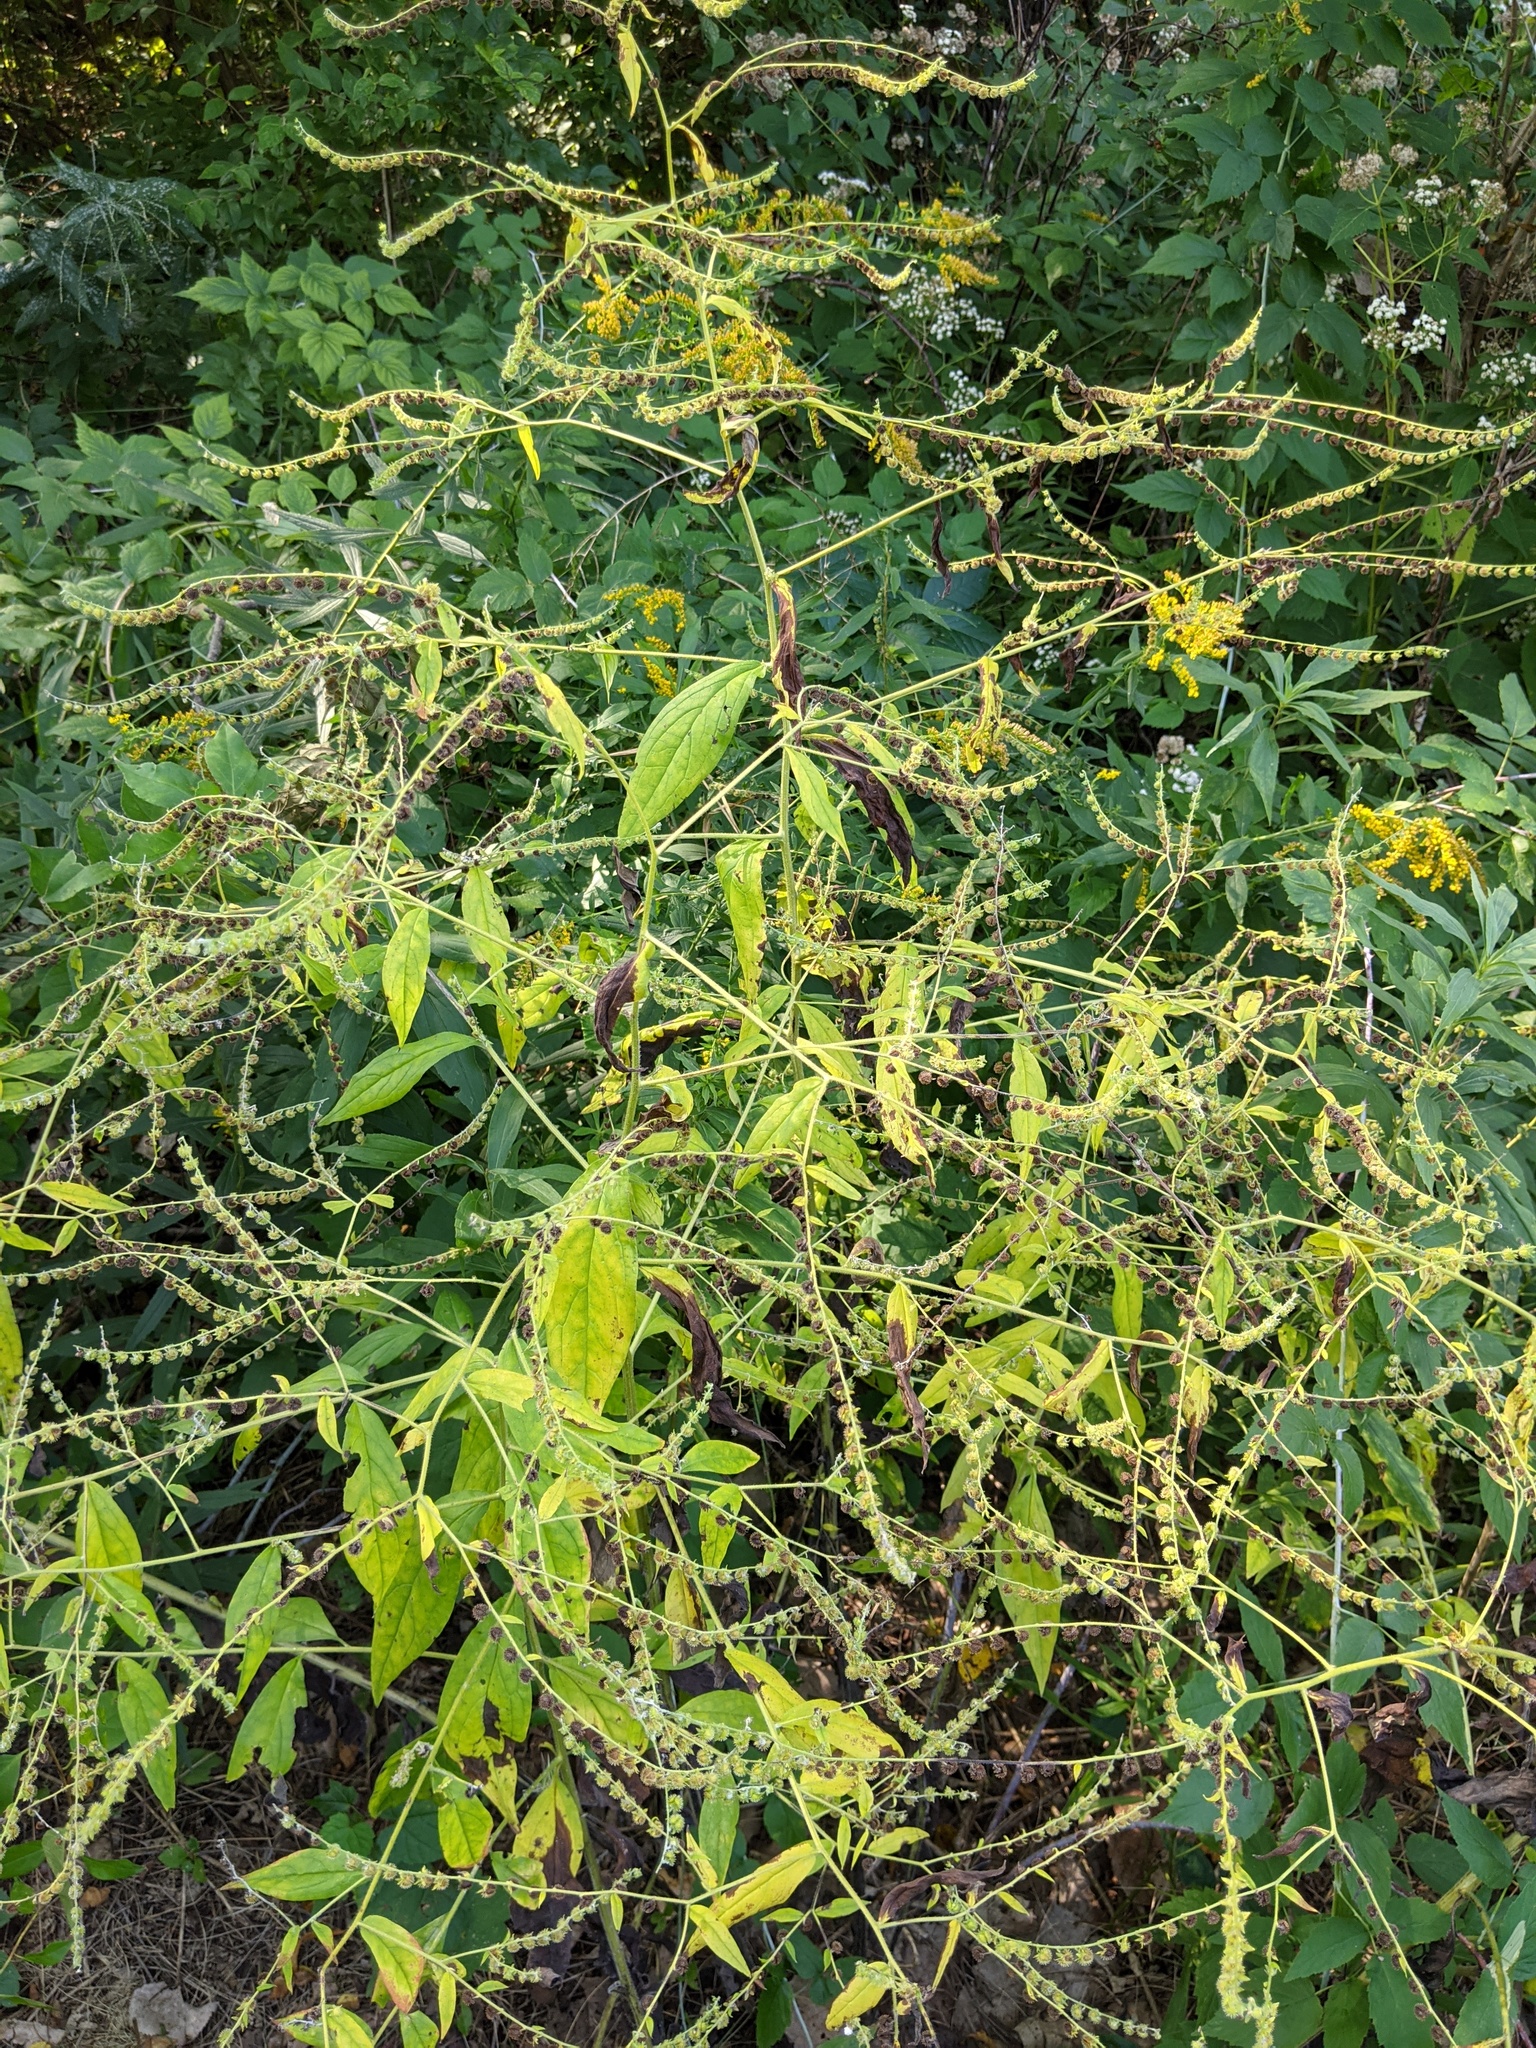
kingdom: Plantae
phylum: Tracheophyta
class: Magnoliopsida
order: Boraginales
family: Boraginaceae
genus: Hackelia
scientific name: Hackelia virginiana
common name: Beggar's-lice
